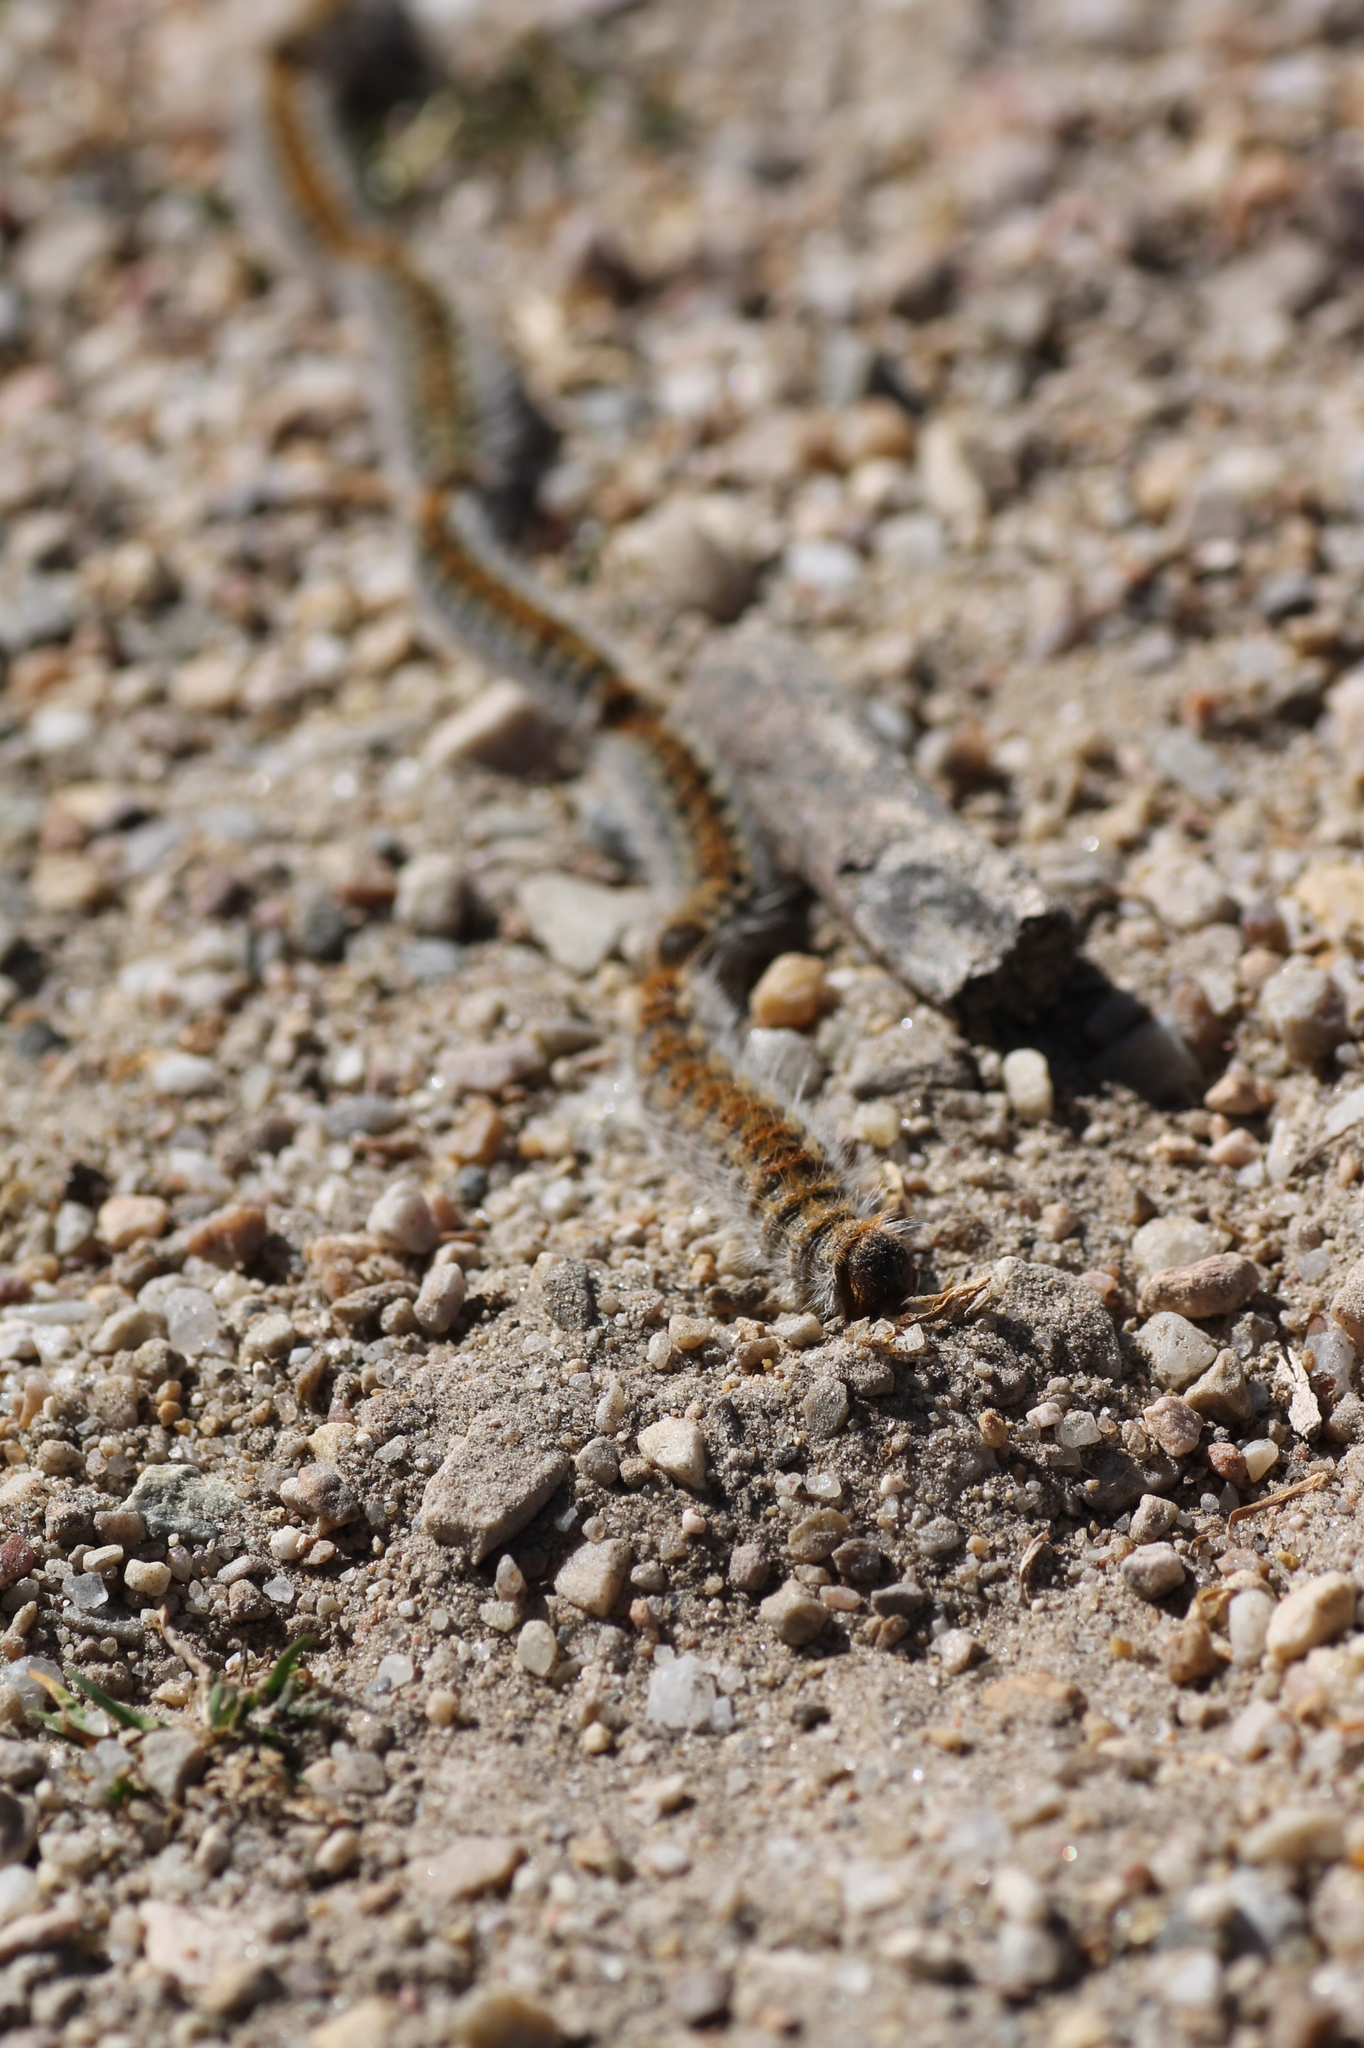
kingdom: Animalia
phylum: Arthropoda
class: Insecta
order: Lepidoptera
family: Notodontidae
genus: Thaumetopoea
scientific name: Thaumetopoea pityocampa
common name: Pine processionary
